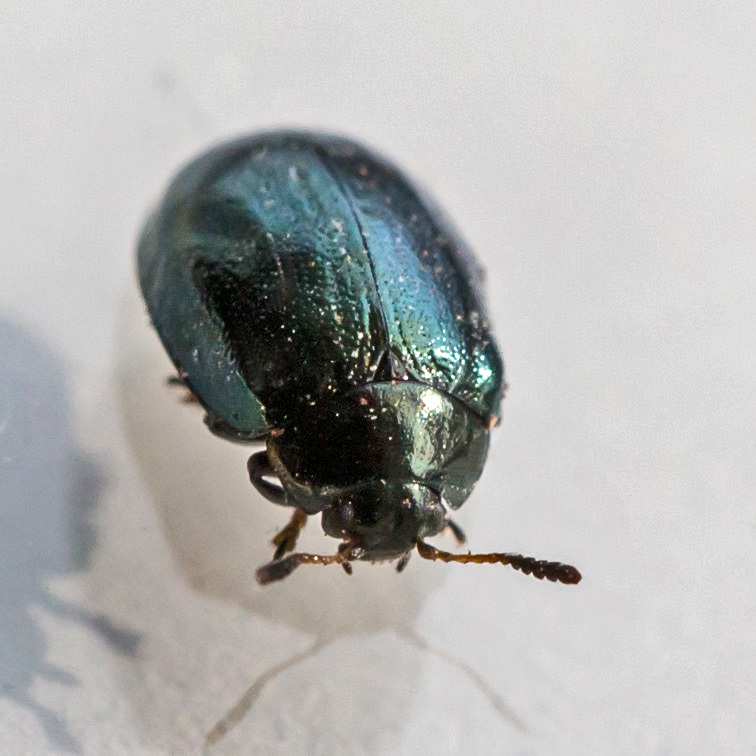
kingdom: Animalia
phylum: Arthropoda
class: Insecta
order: Coleoptera
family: Chrysomelidae
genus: Plagiodera
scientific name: Plagiodera versicolora
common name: Imported willow leaf beetle
